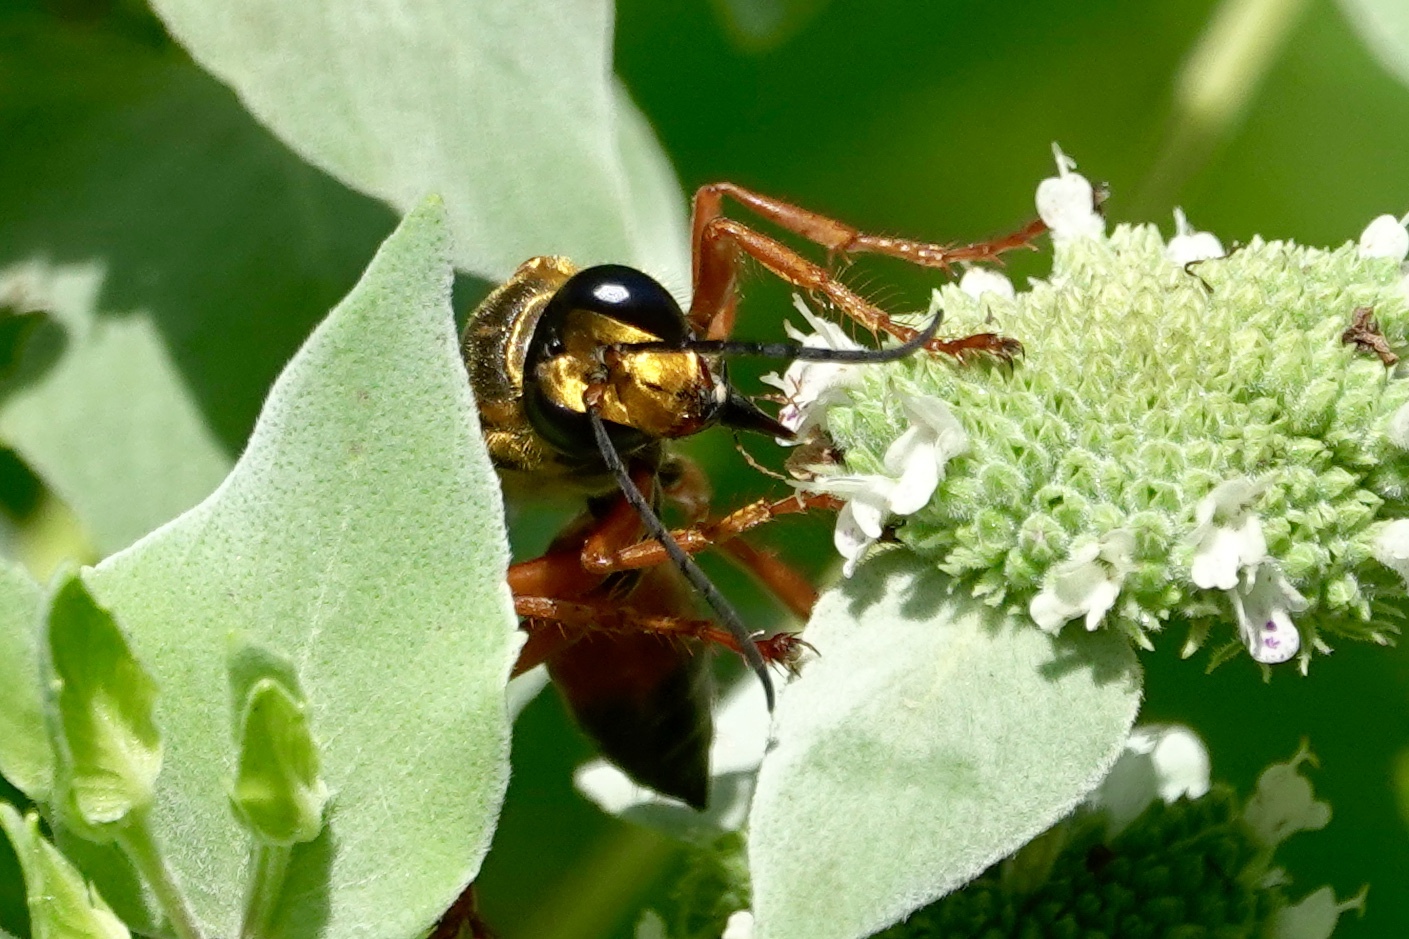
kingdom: Animalia
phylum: Arthropoda
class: Insecta
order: Hymenoptera
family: Sphecidae
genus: Sphex
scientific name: Sphex ichneumoneus
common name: Great golden digger wasp
